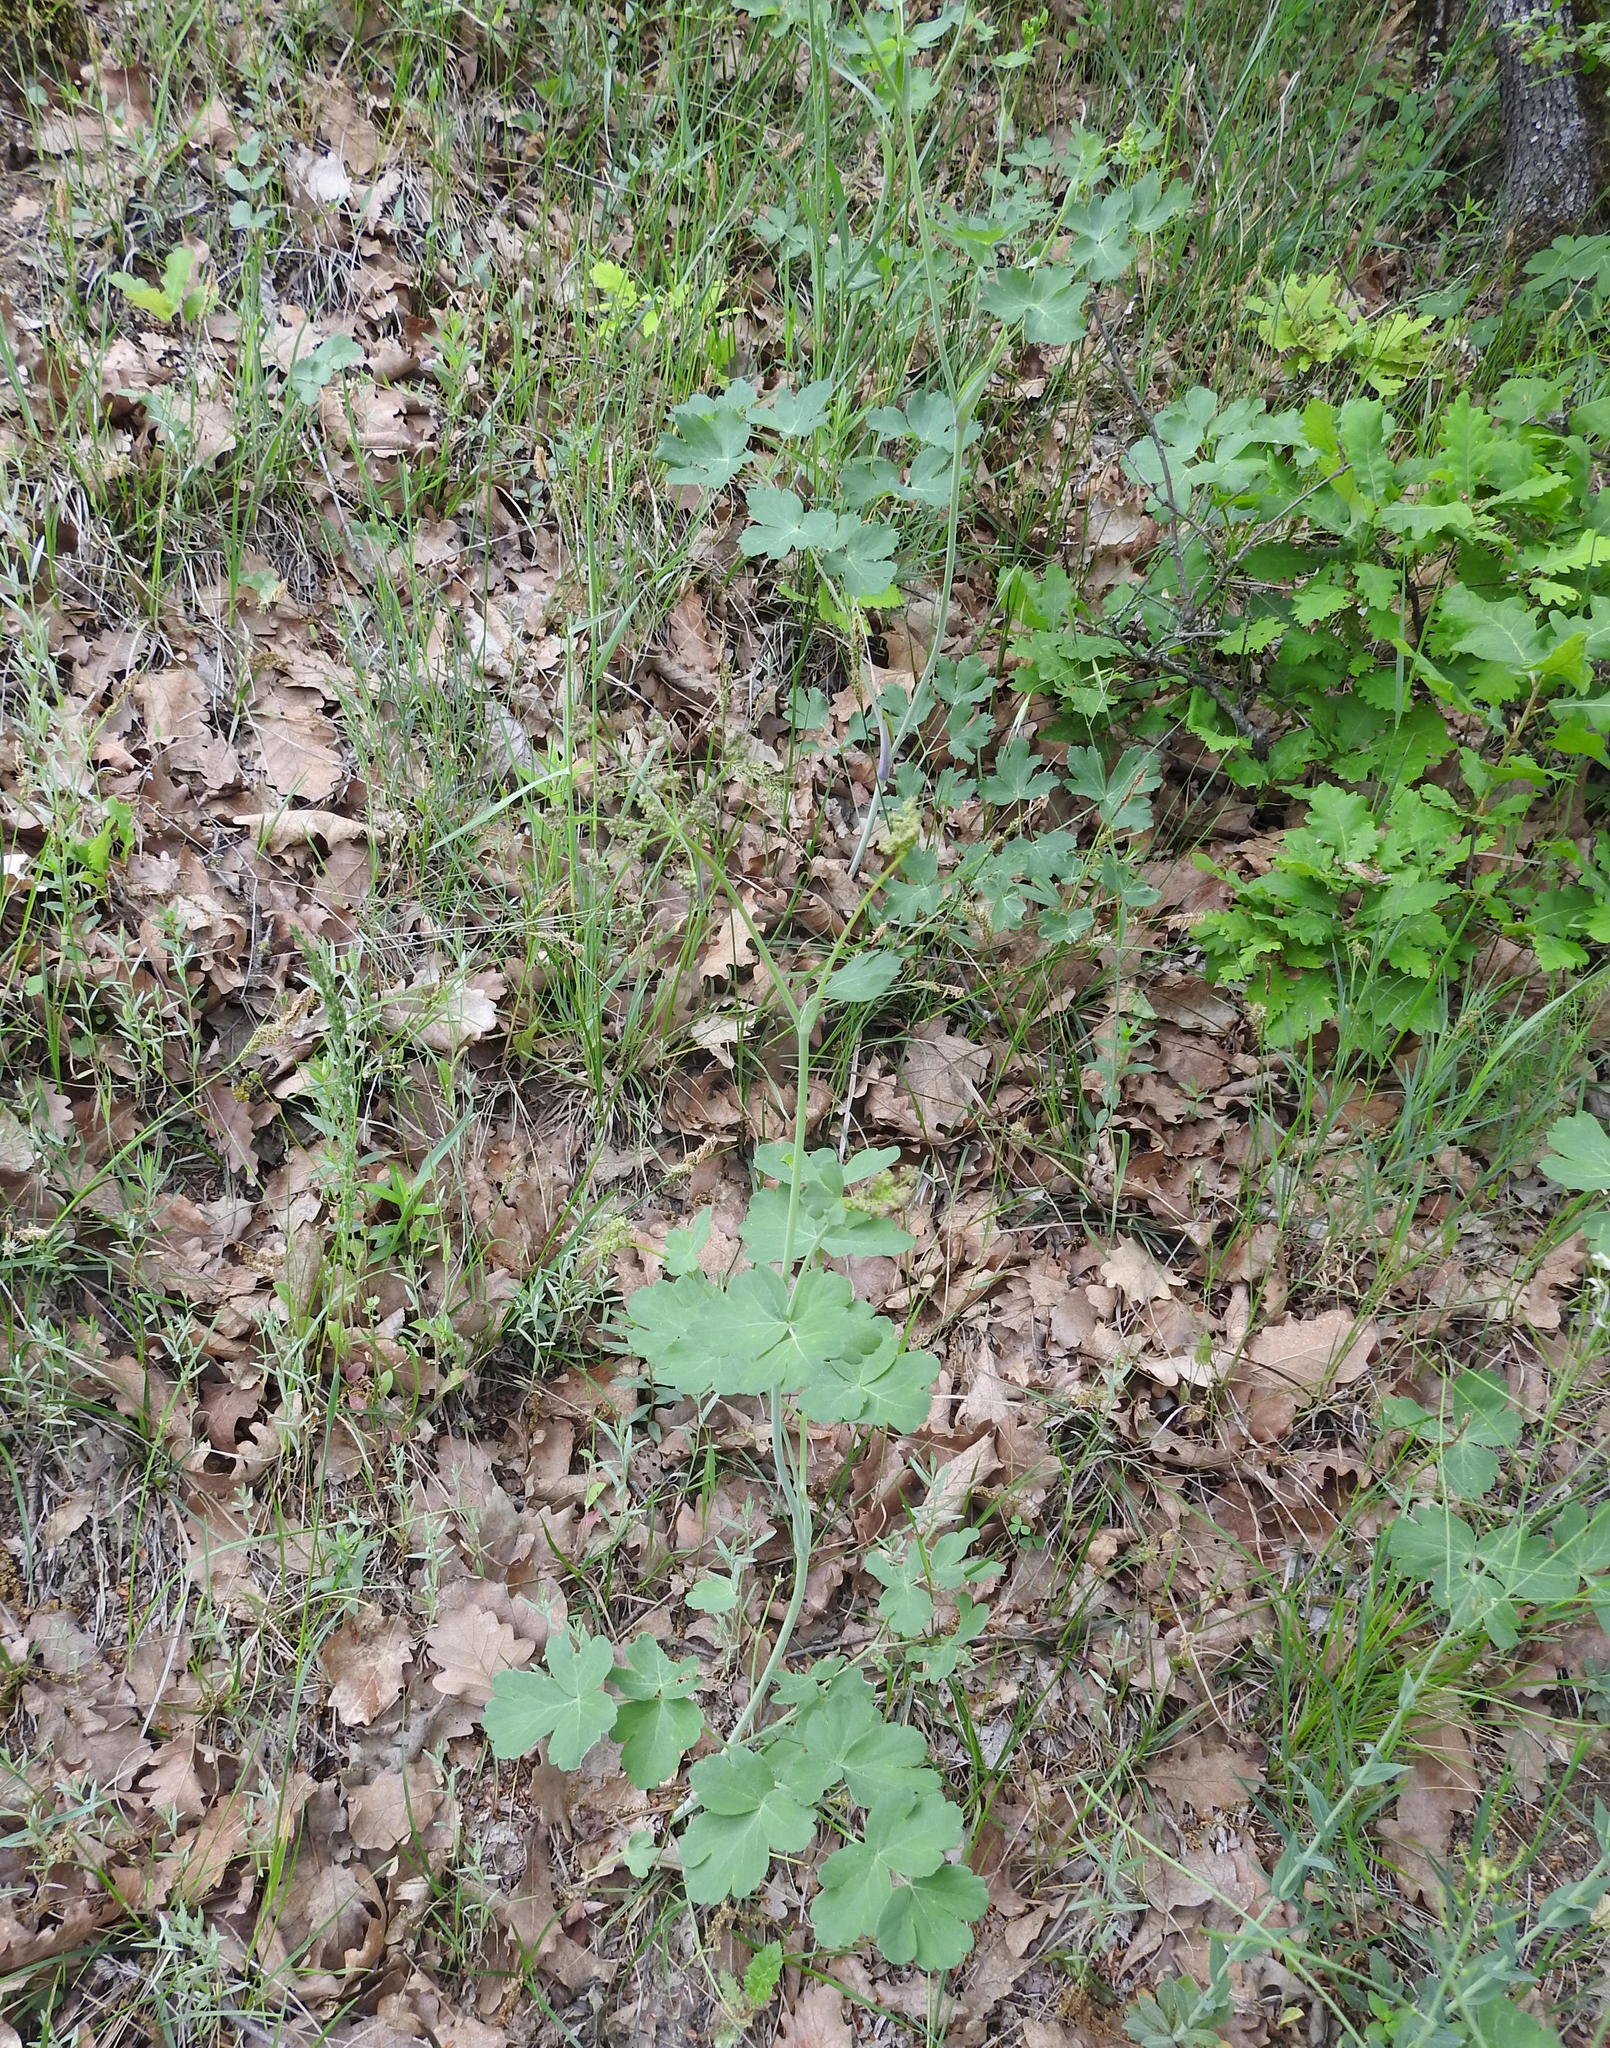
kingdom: Plantae
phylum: Tracheophyta
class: Magnoliopsida
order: Apiales
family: Apiaceae
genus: Laser
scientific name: Laser trilobum
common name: Laser
